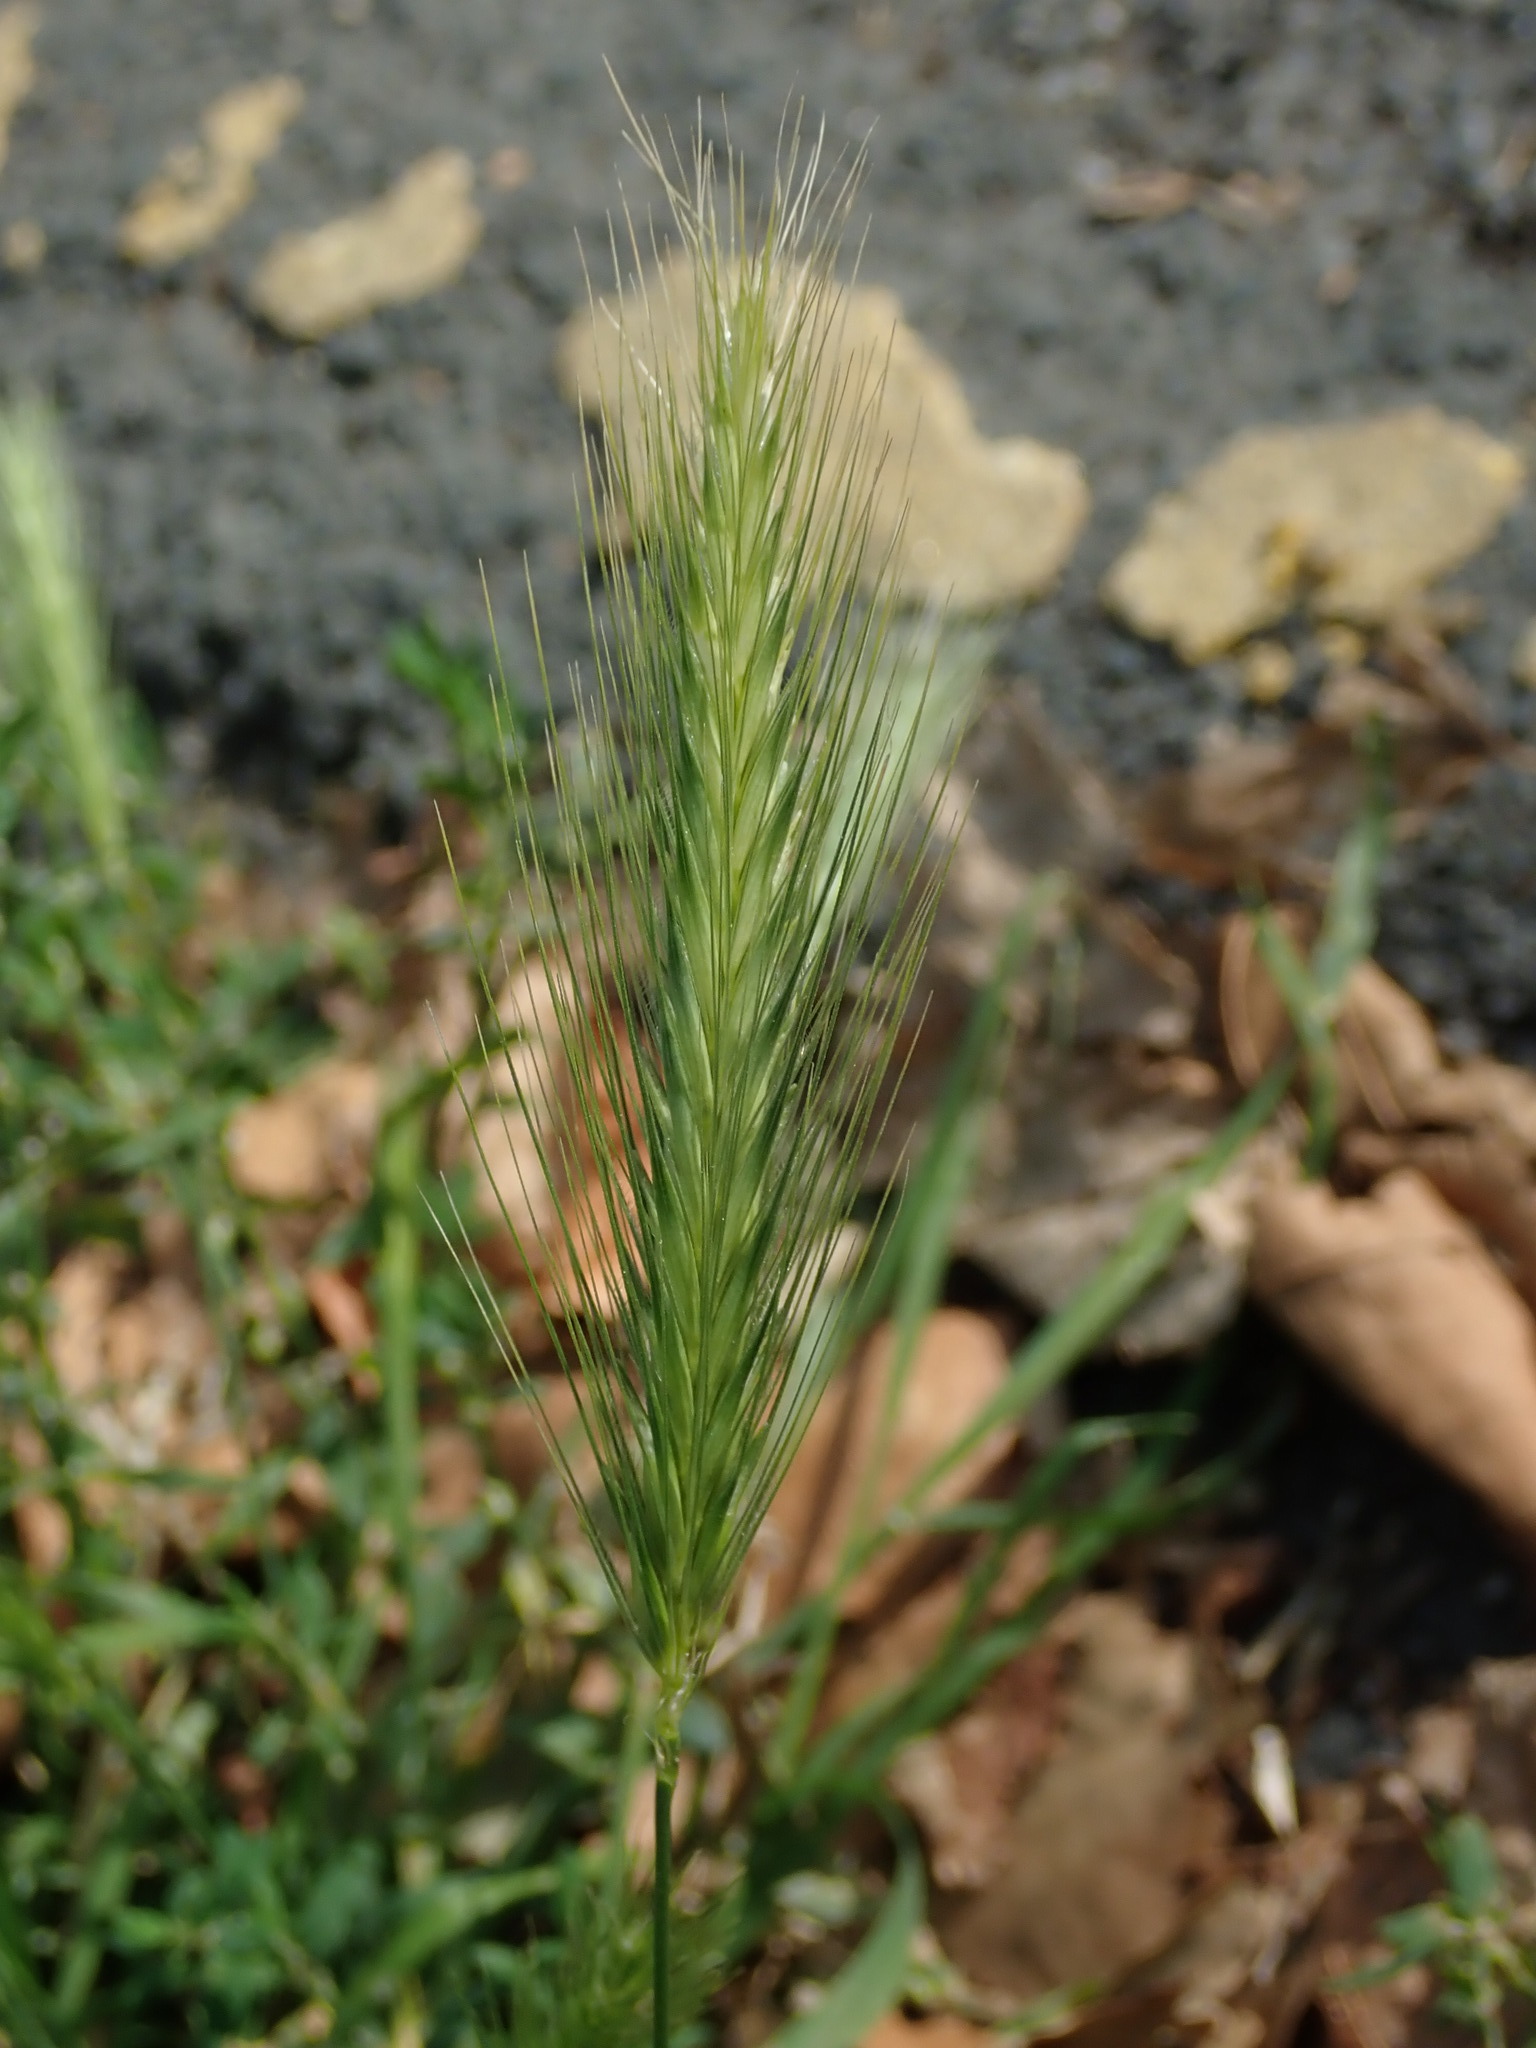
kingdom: Plantae
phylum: Tracheophyta
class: Liliopsida
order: Poales
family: Poaceae
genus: Hordeum
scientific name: Hordeum murinum
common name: Wall barley
